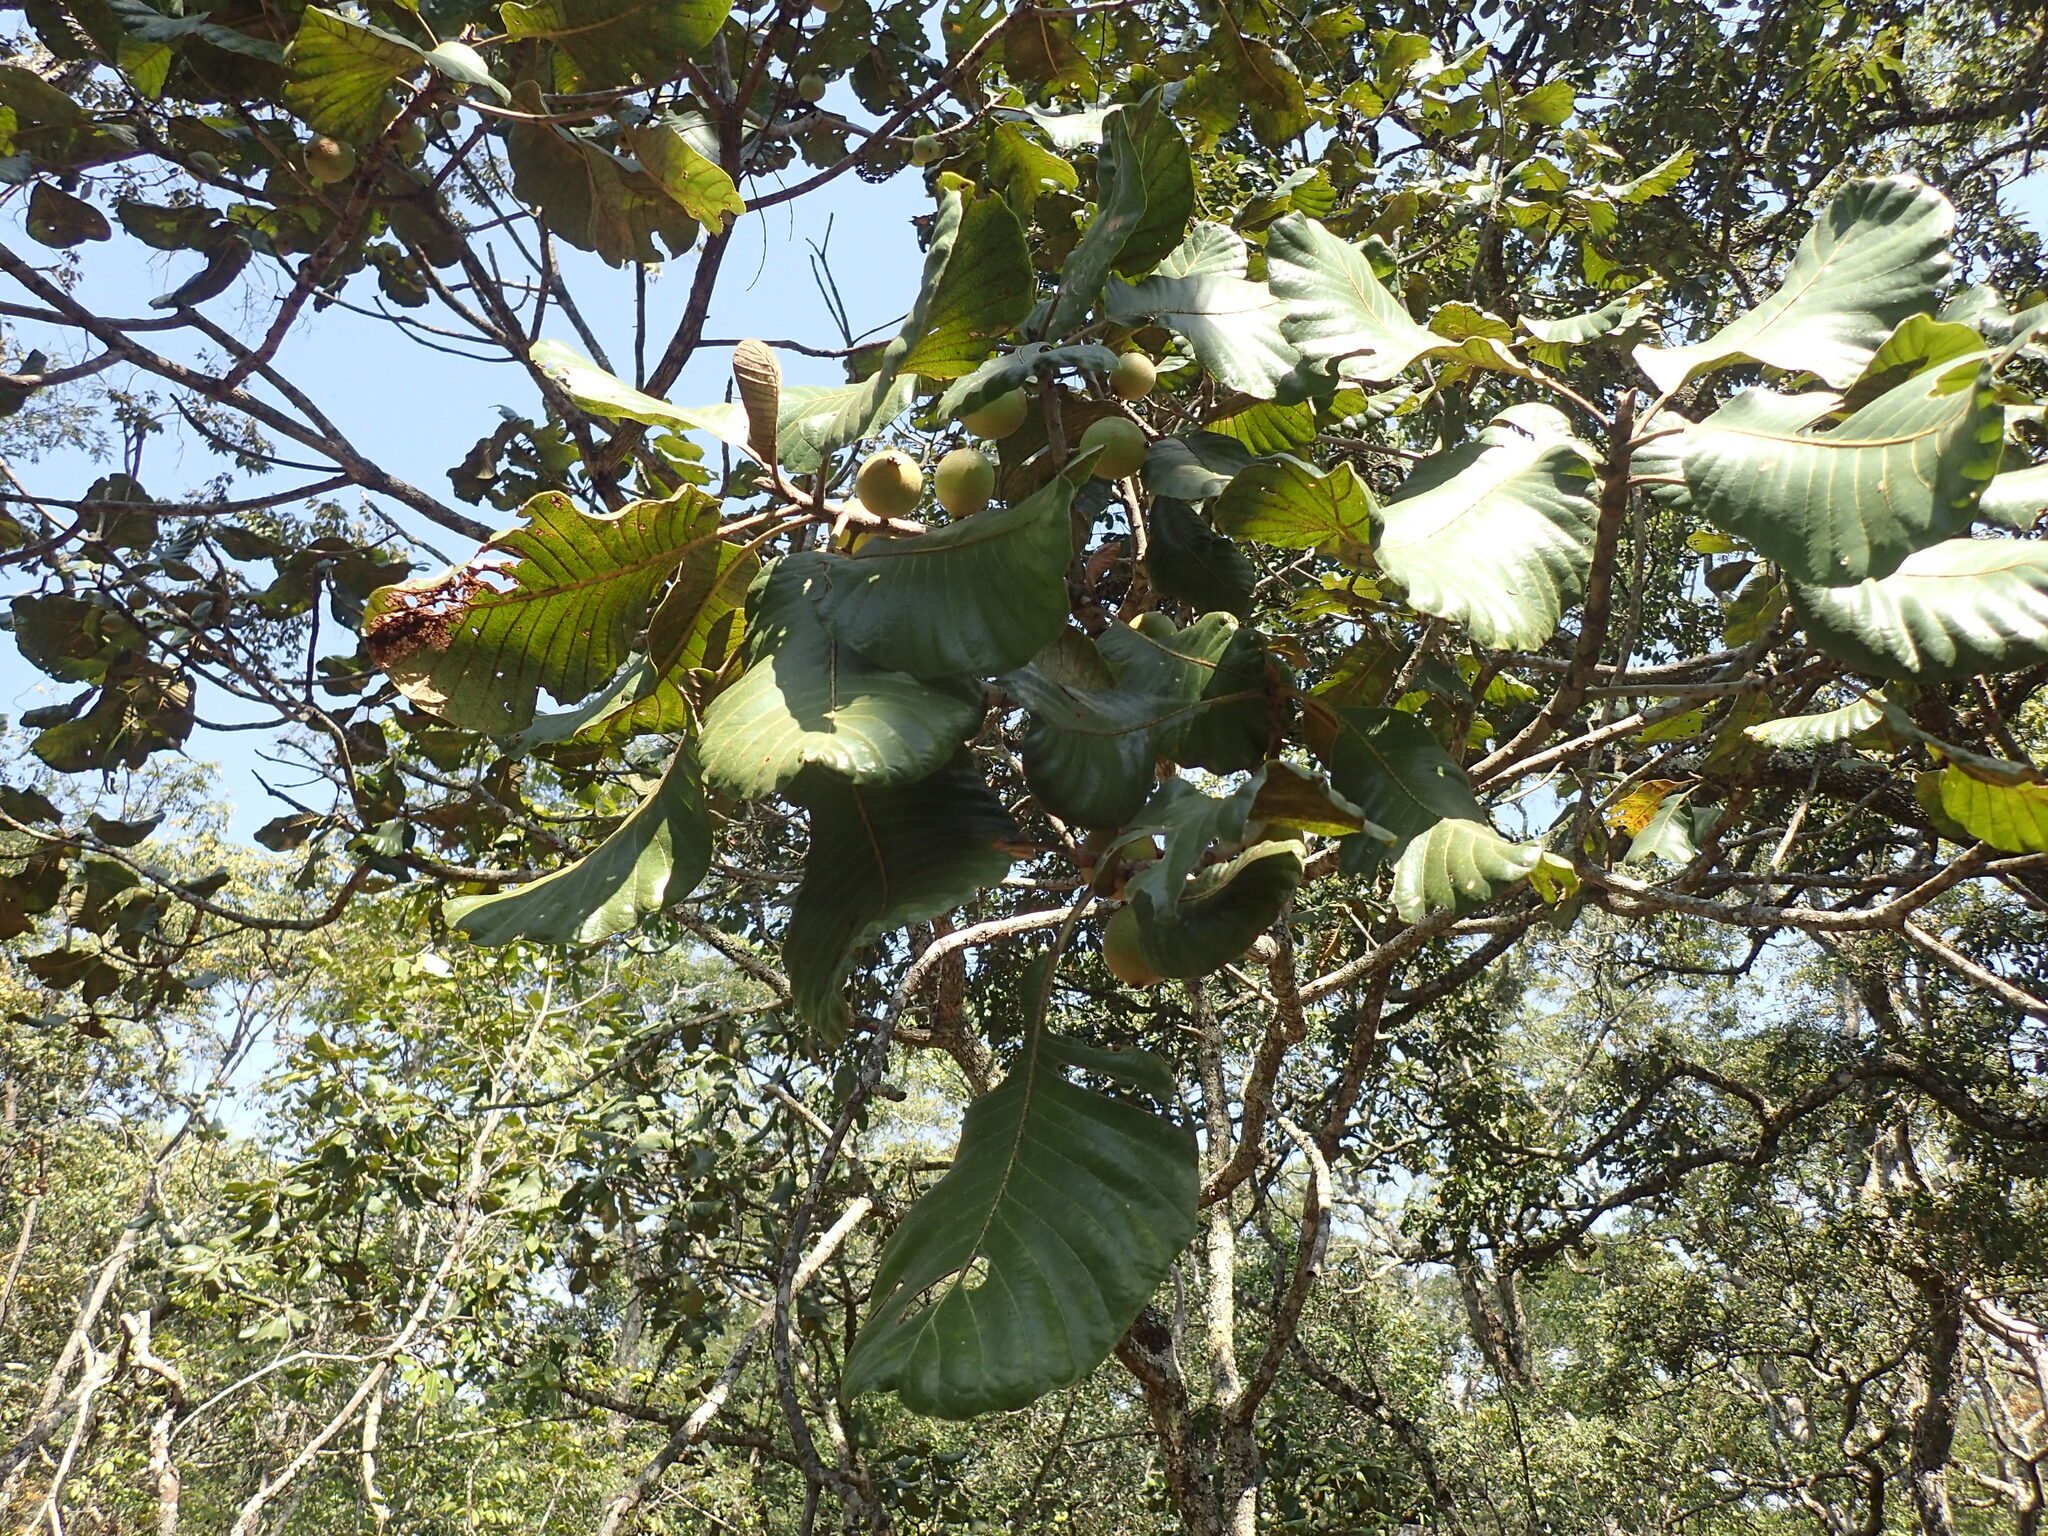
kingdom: Plantae
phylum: Tracheophyta
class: Magnoliopsida
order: Malpighiales
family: Phyllanthaceae
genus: Uapaca
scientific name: Uapaca kirkiana
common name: Wild loquat
